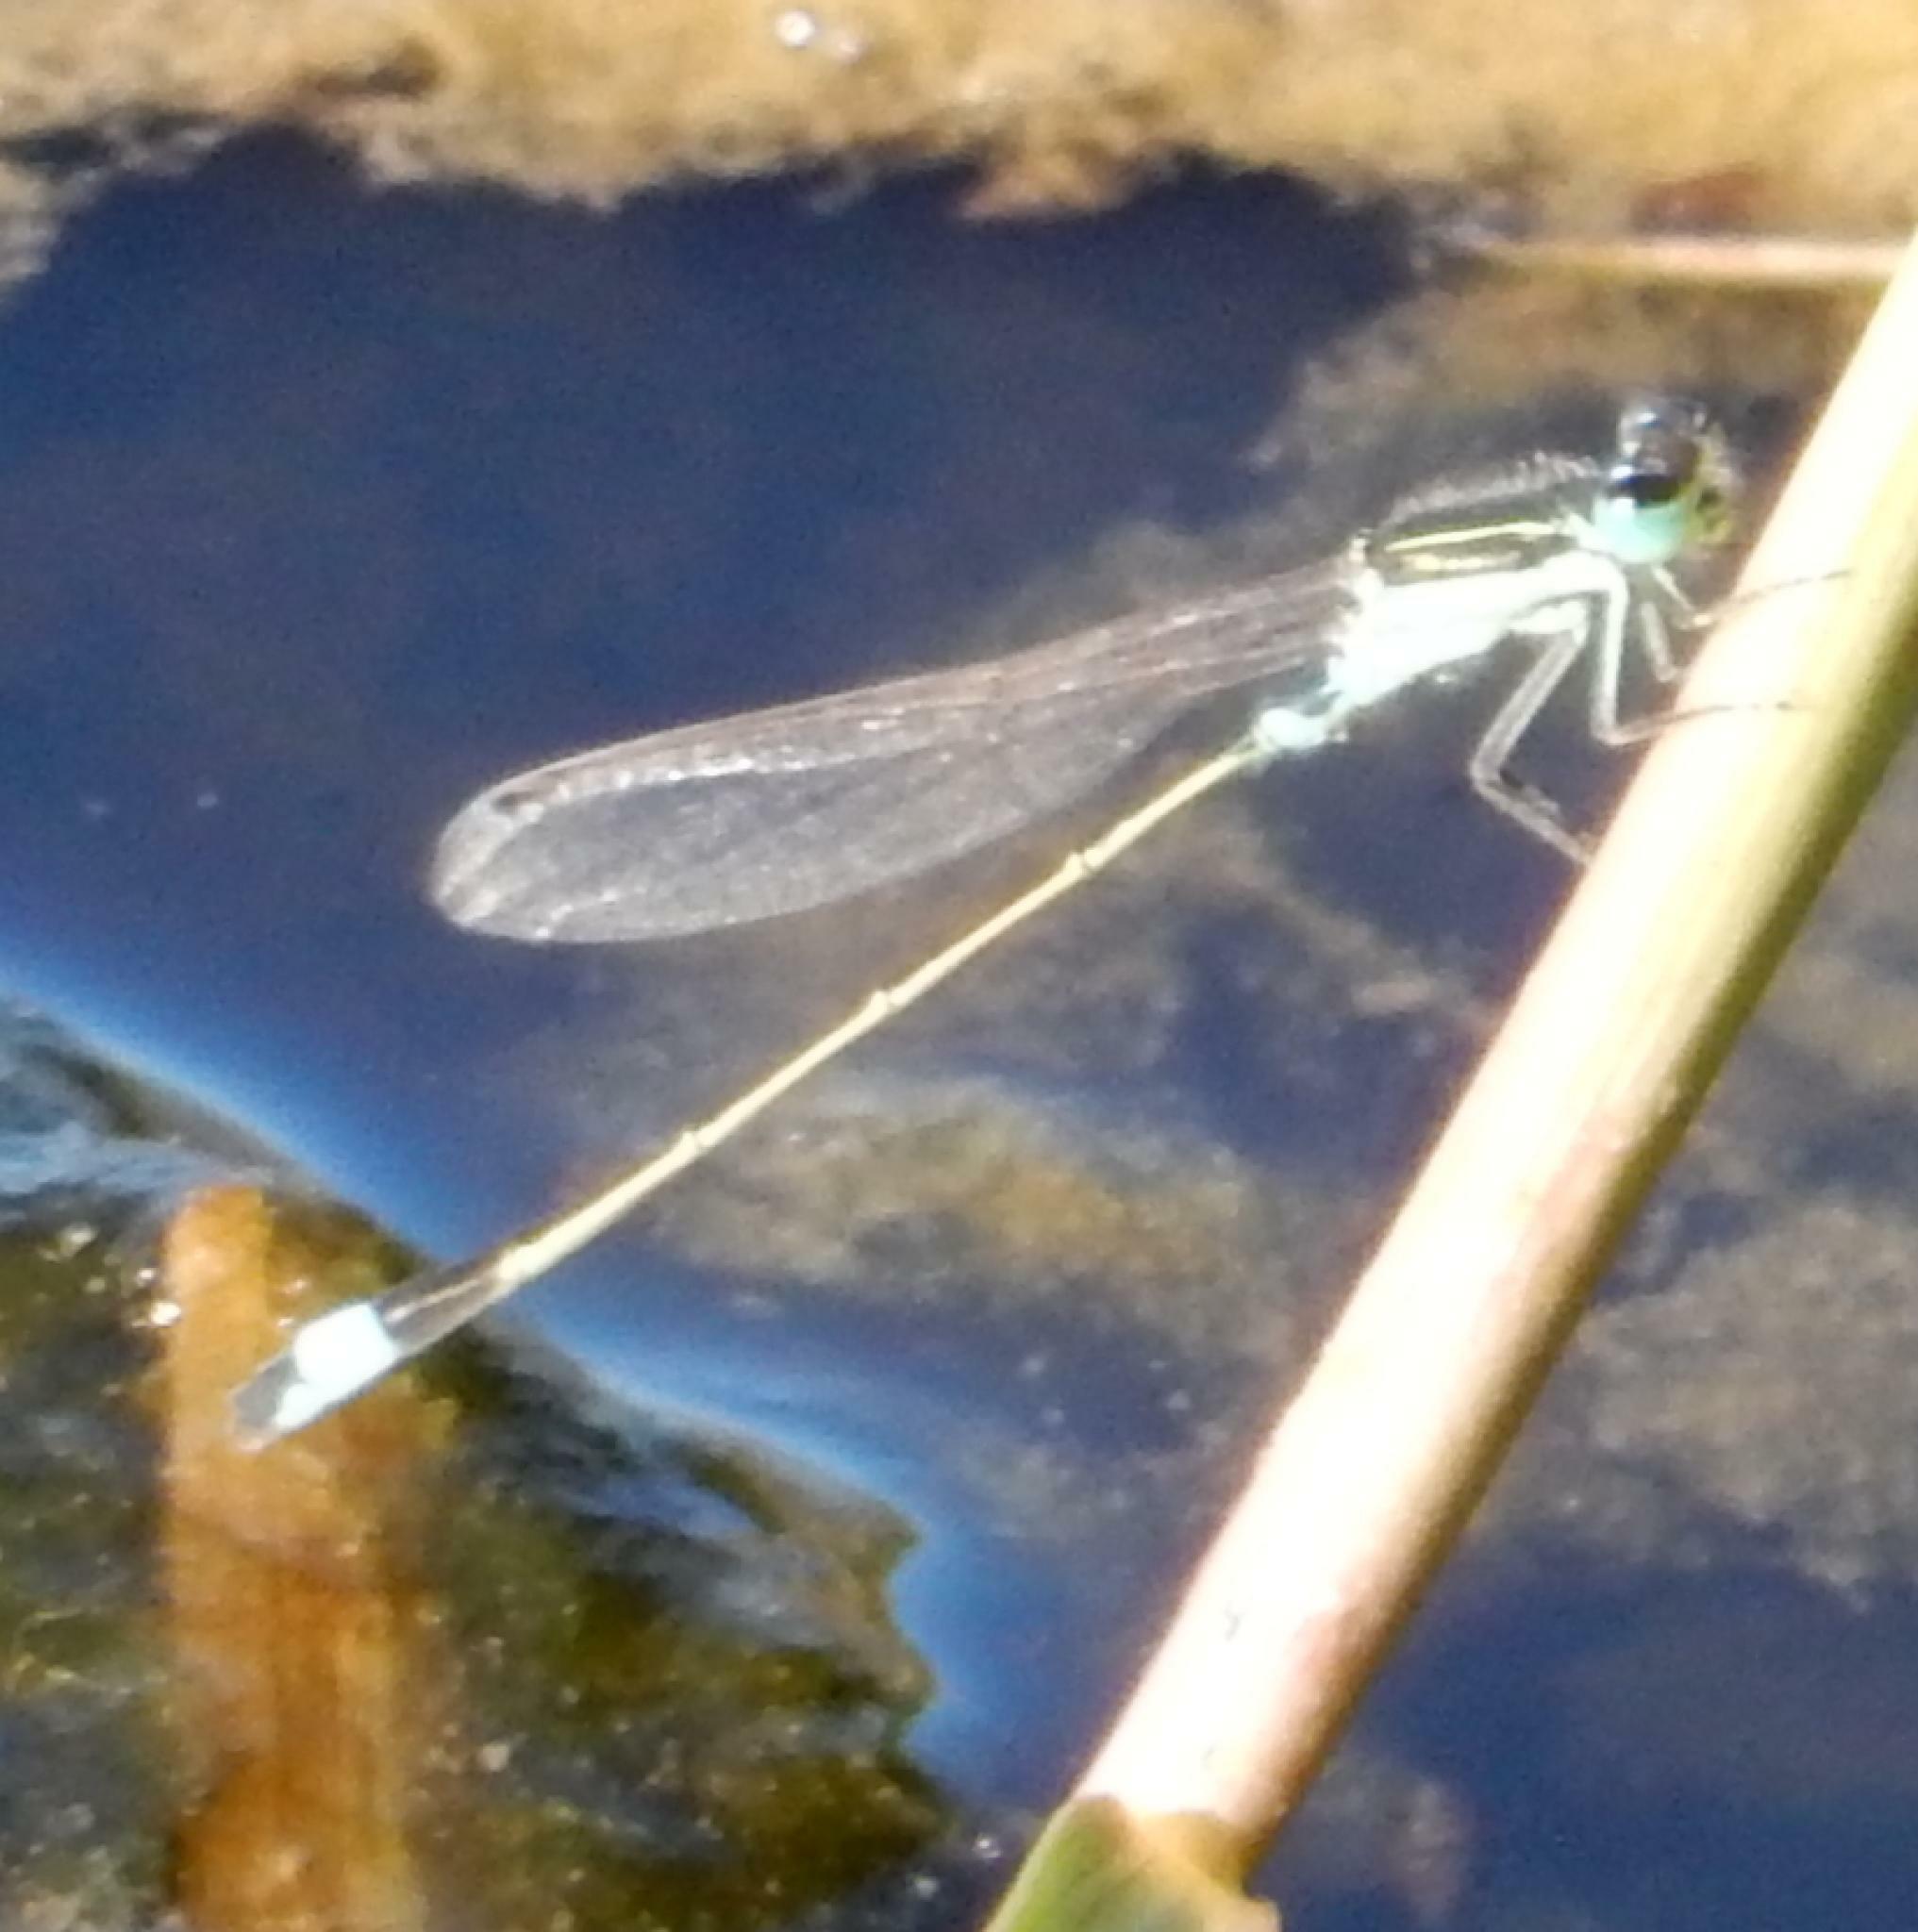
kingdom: Animalia
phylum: Arthropoda
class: Insecta
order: Odonata
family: Coenagrionidae
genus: Ischnura
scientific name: Ischnura senegalensis
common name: Tropical bluetail
